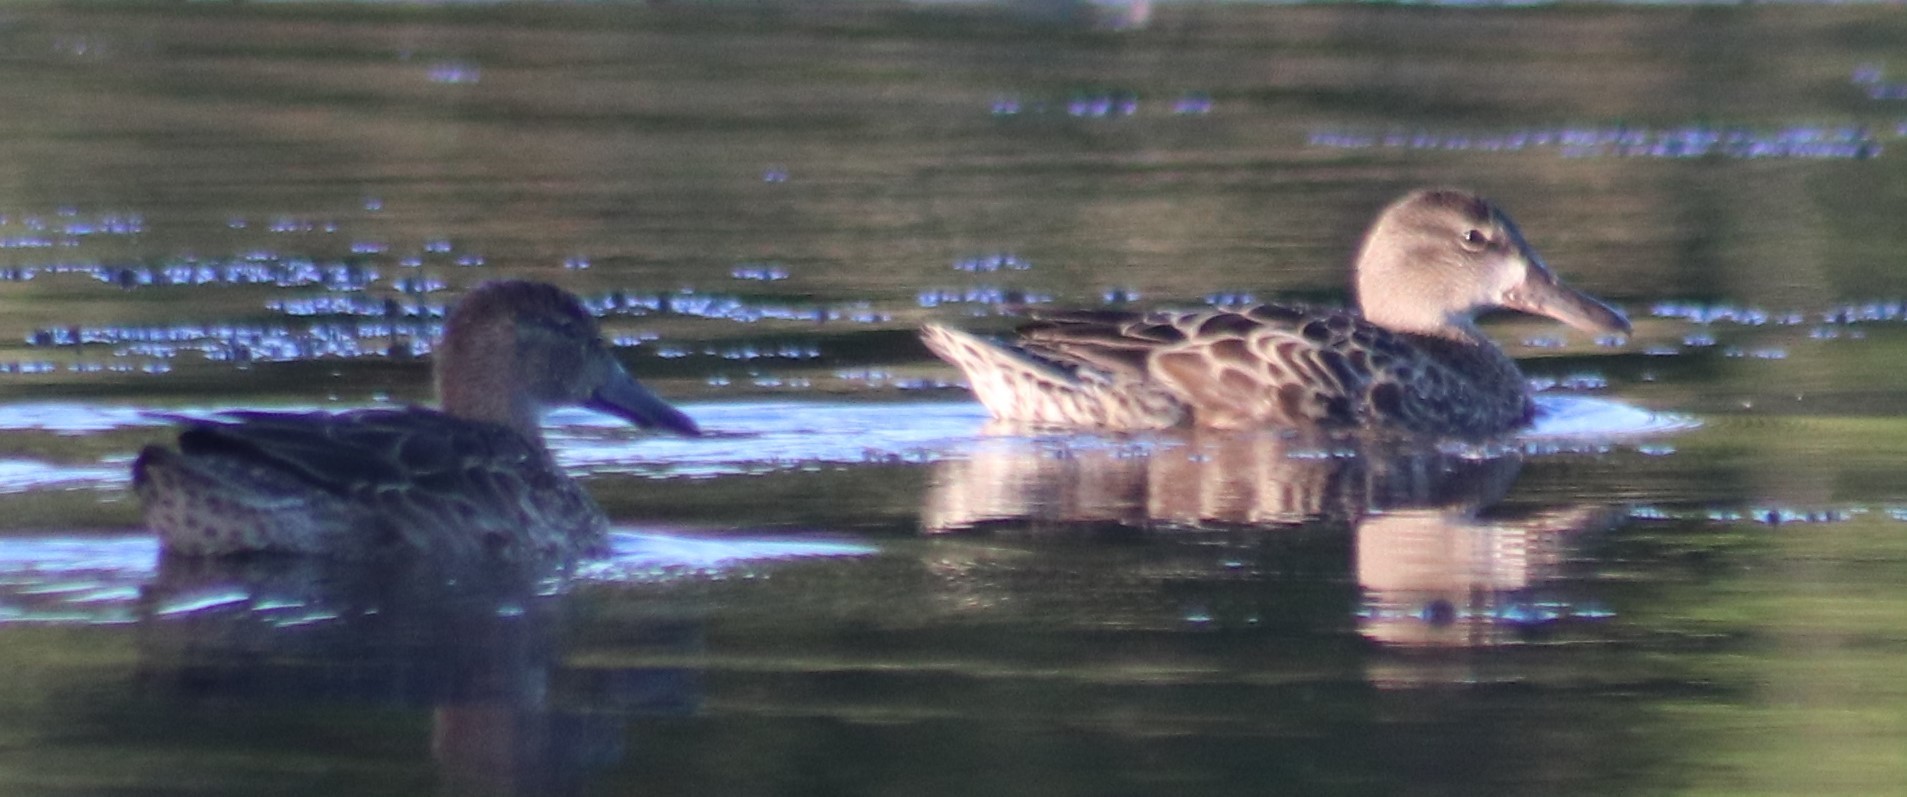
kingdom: Animalia
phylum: Chordata
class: Aves
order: Anseriformes
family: Anatidae
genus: Spatula
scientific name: Spatula discors
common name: Blue-winged teal
